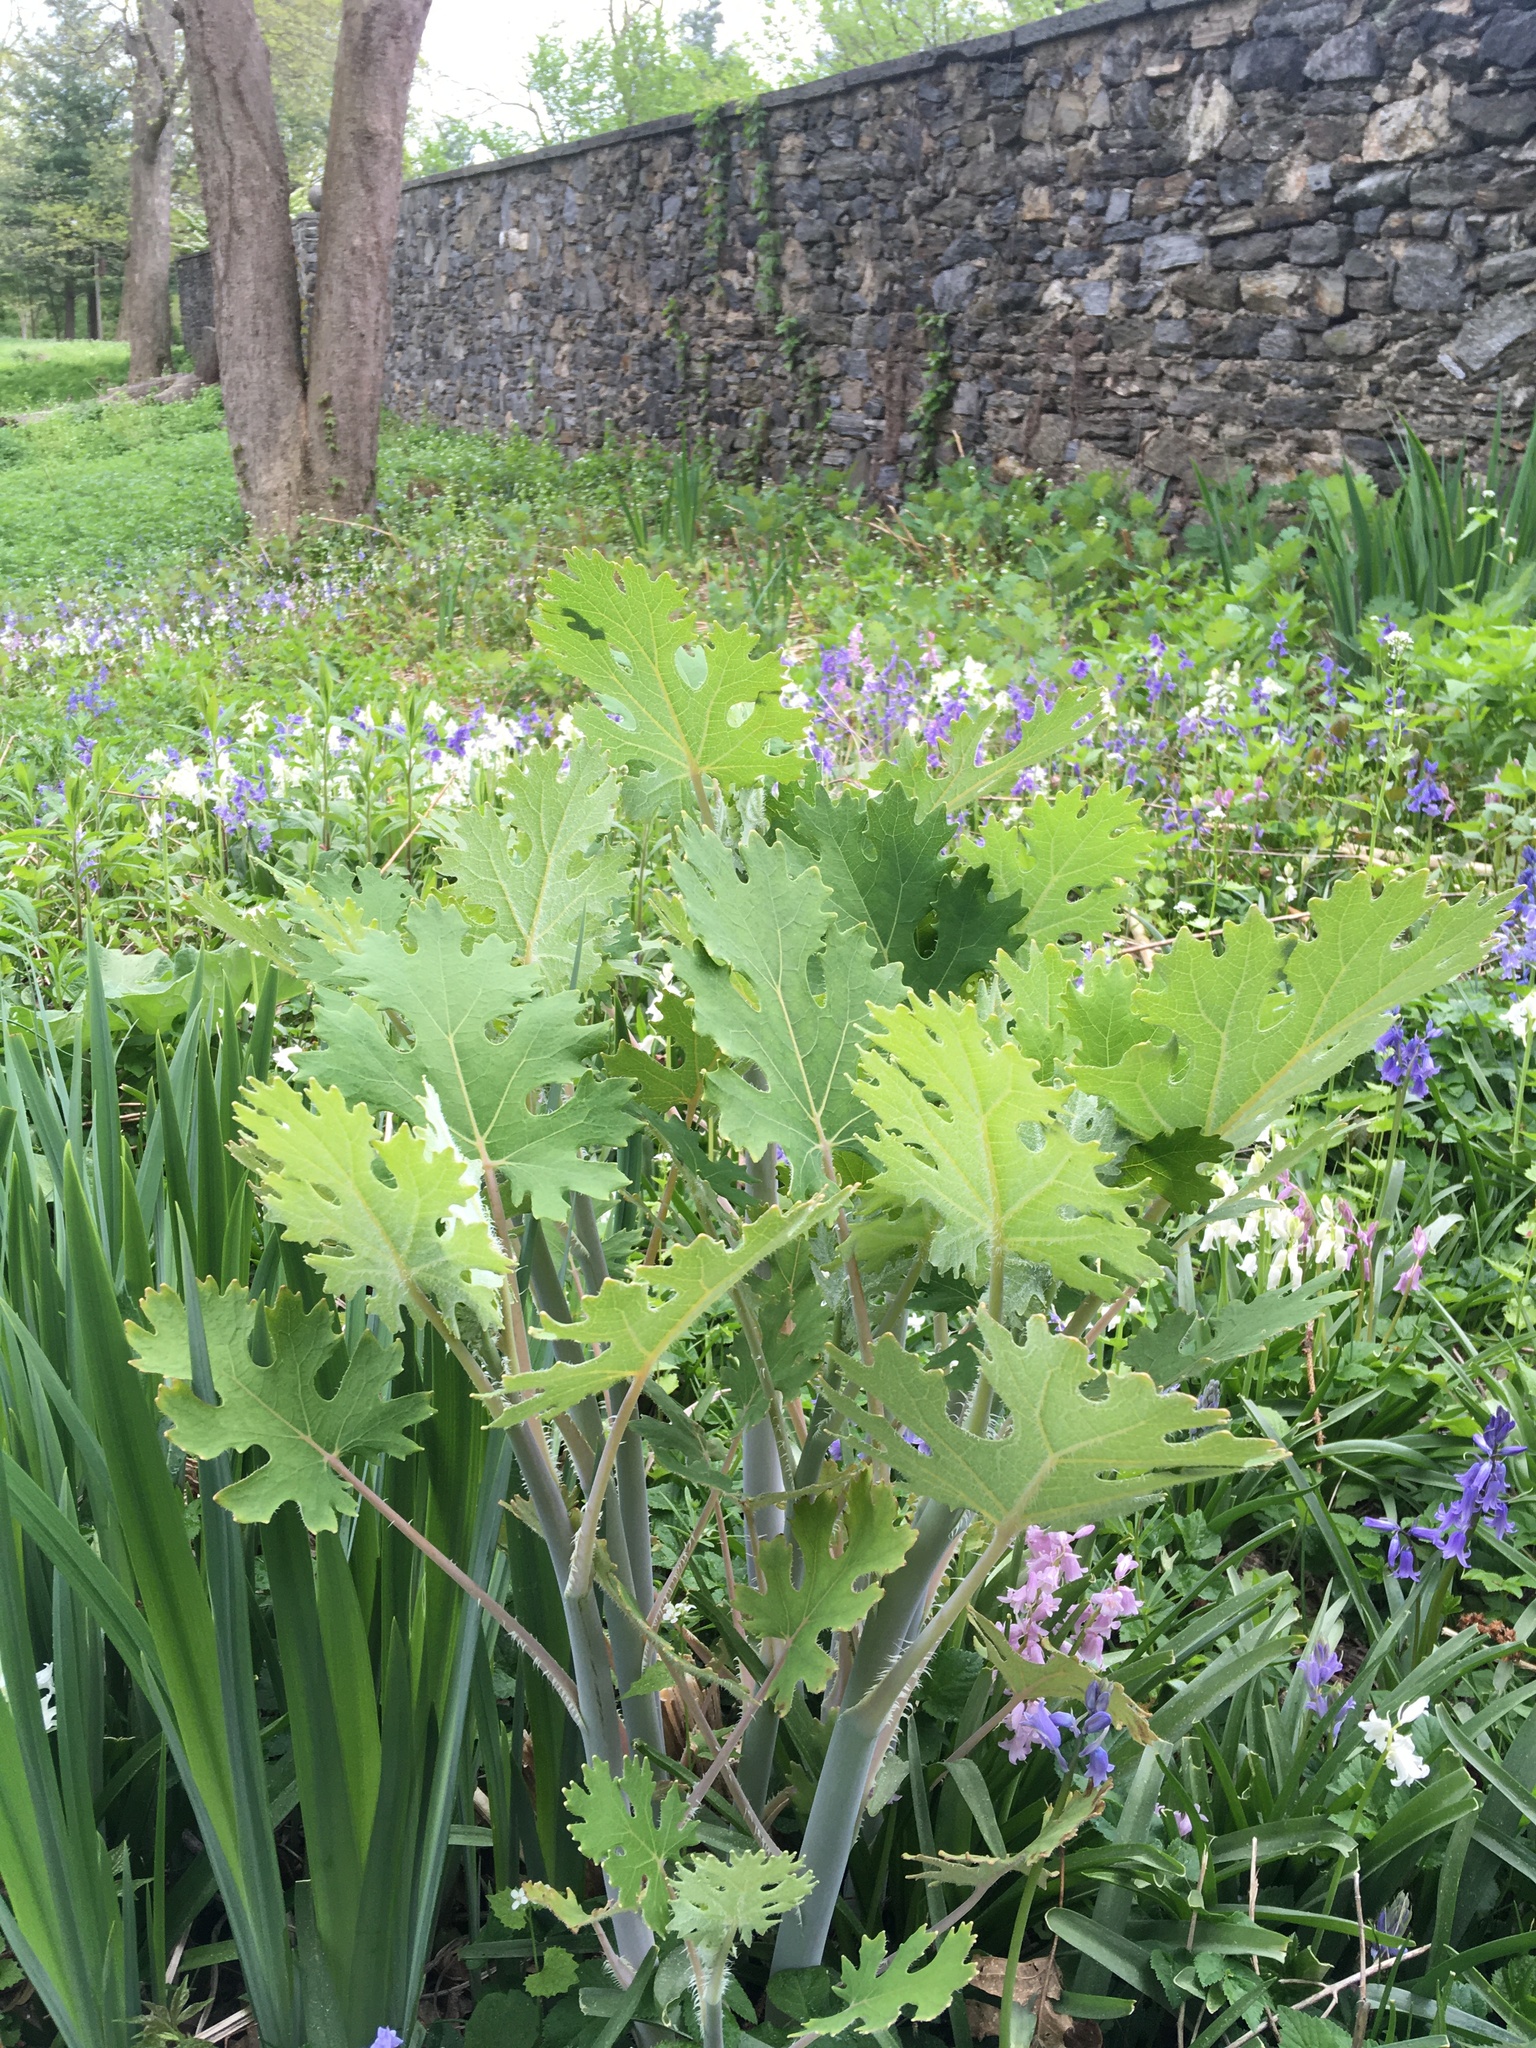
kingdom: Plantae
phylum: Tracheophyta
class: Magnoliopsida
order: Ranunculales
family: Papaveraceae
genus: Macleaya
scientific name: Macleaya cordata
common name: Plume poppy
